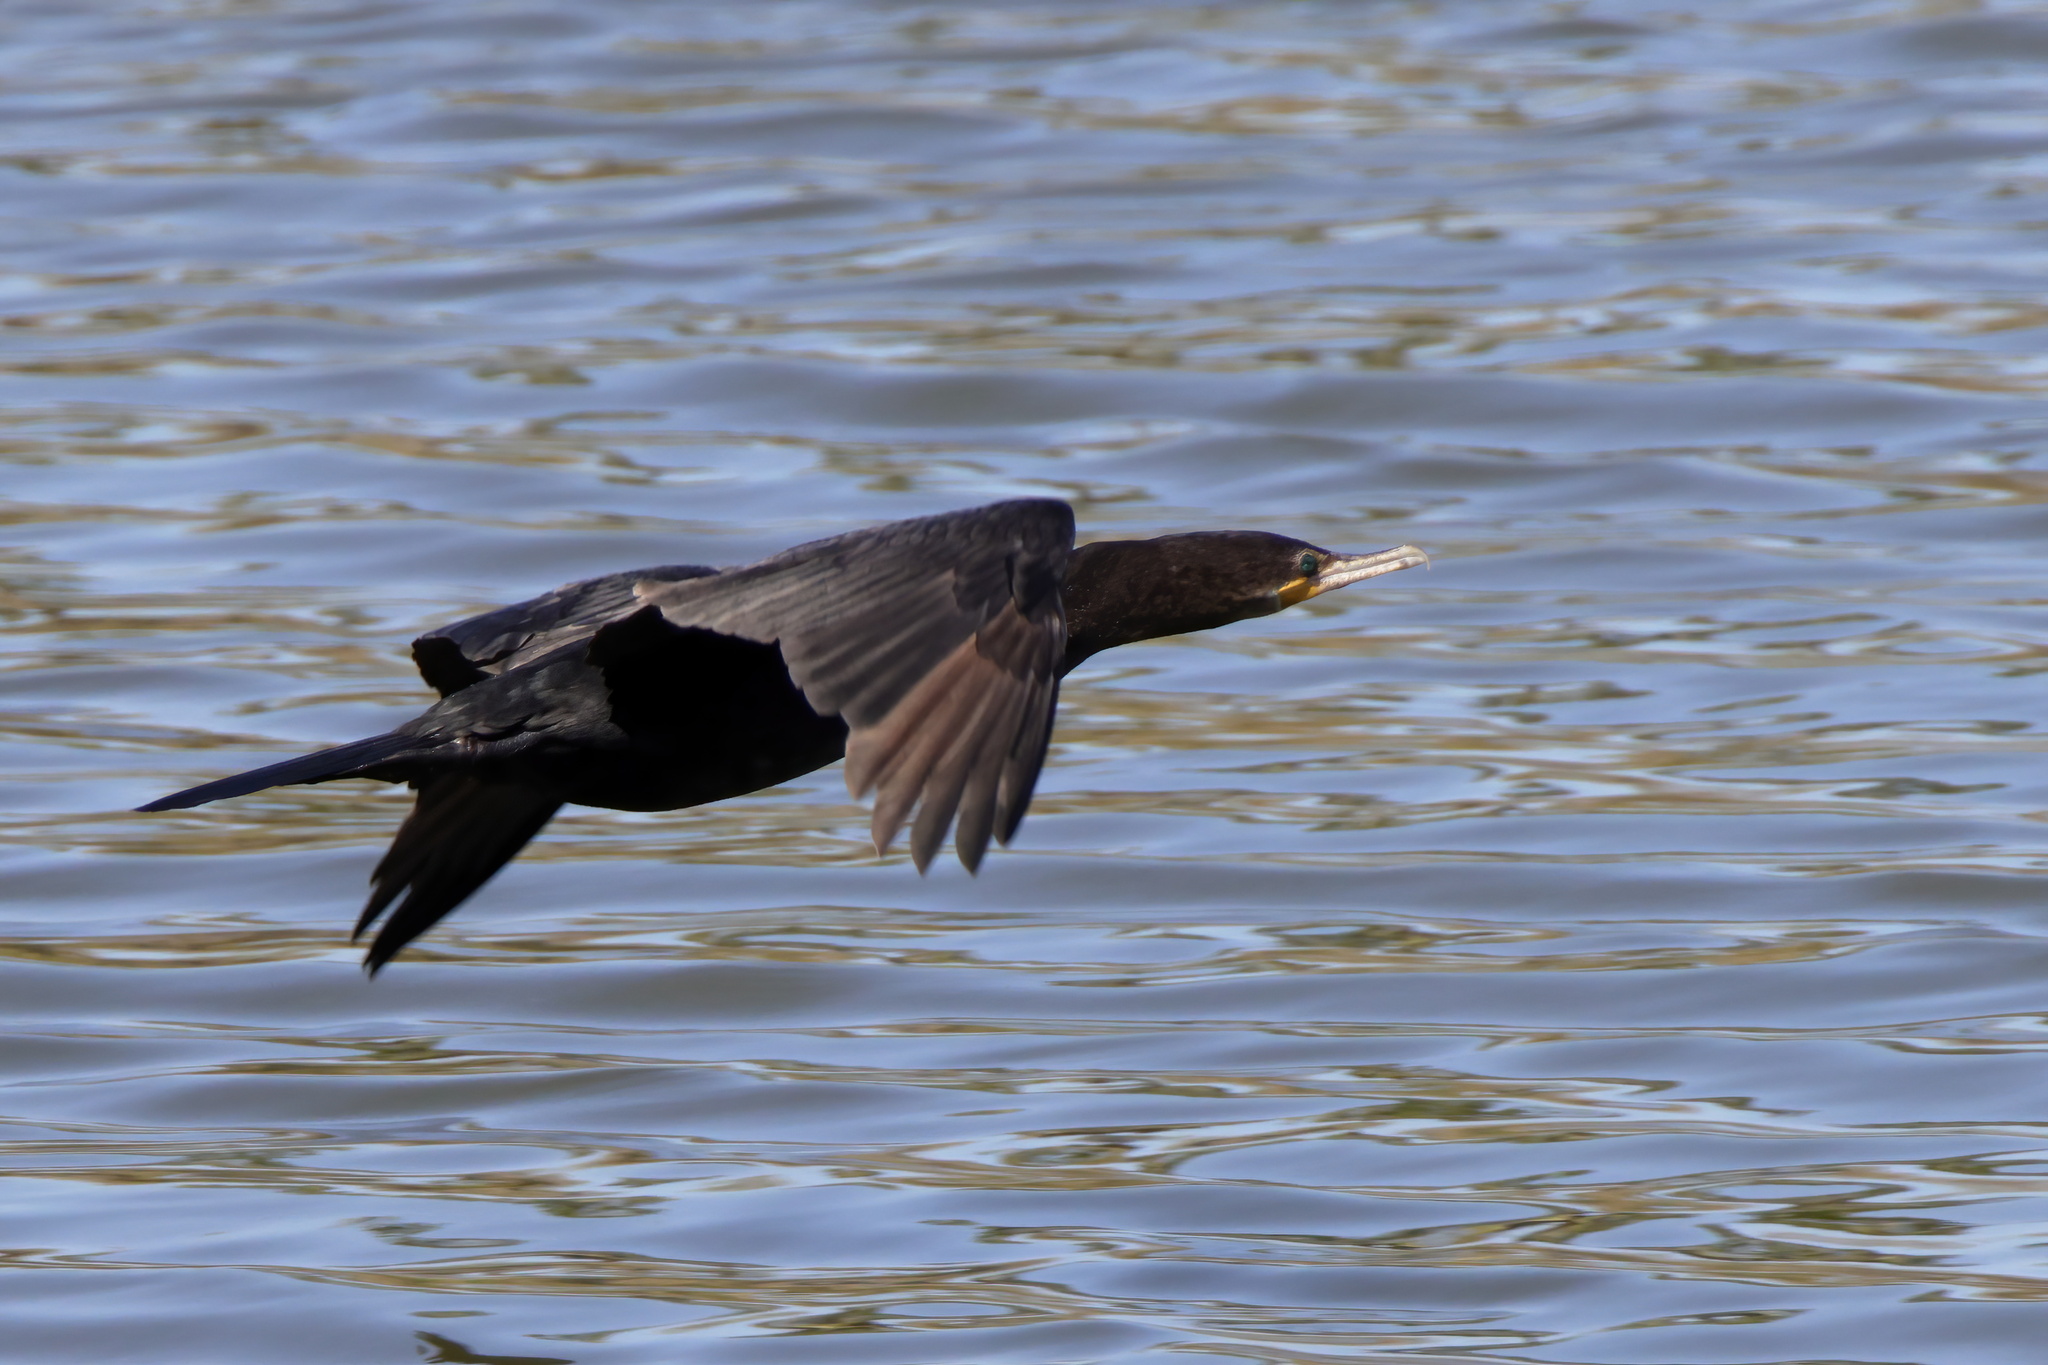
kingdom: Animalia
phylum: Chordata
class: Aves
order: Suliformes
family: Phalacrocoracidae
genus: Phalacrocorax
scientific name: Phalacrocorax brasilianus
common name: Neotropic cormorant
